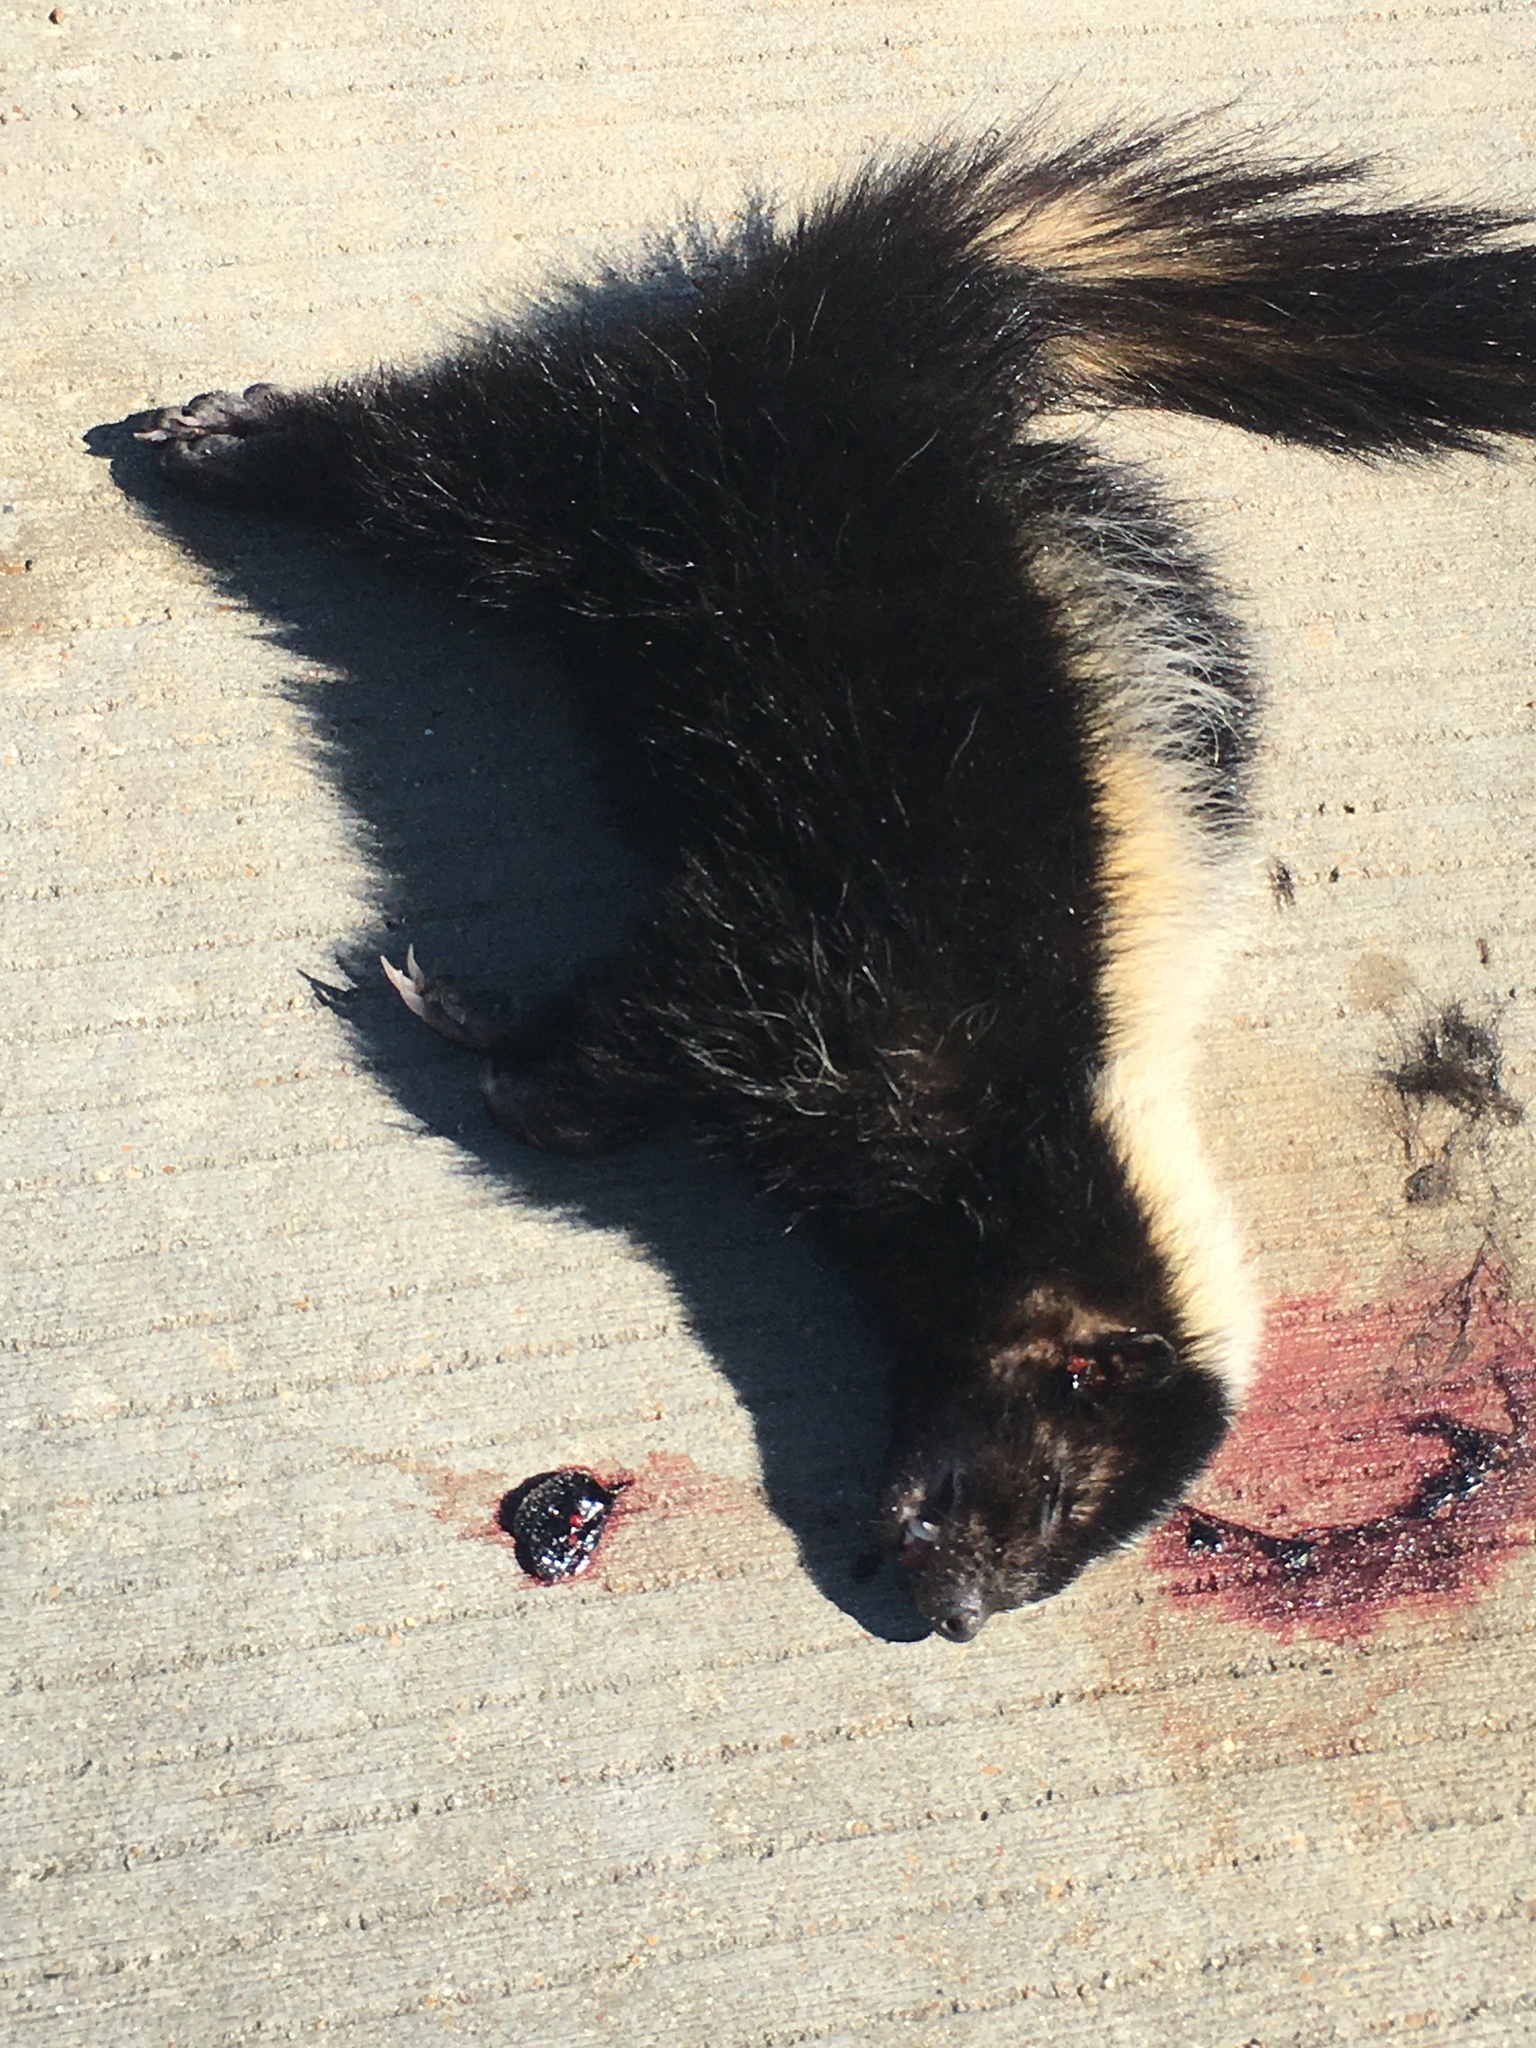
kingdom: Animalia
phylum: Chordata
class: Mammalia
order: Carnivora
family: Mephitidae
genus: Mephitis
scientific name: Mephitis mephitis
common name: Striped skunk
